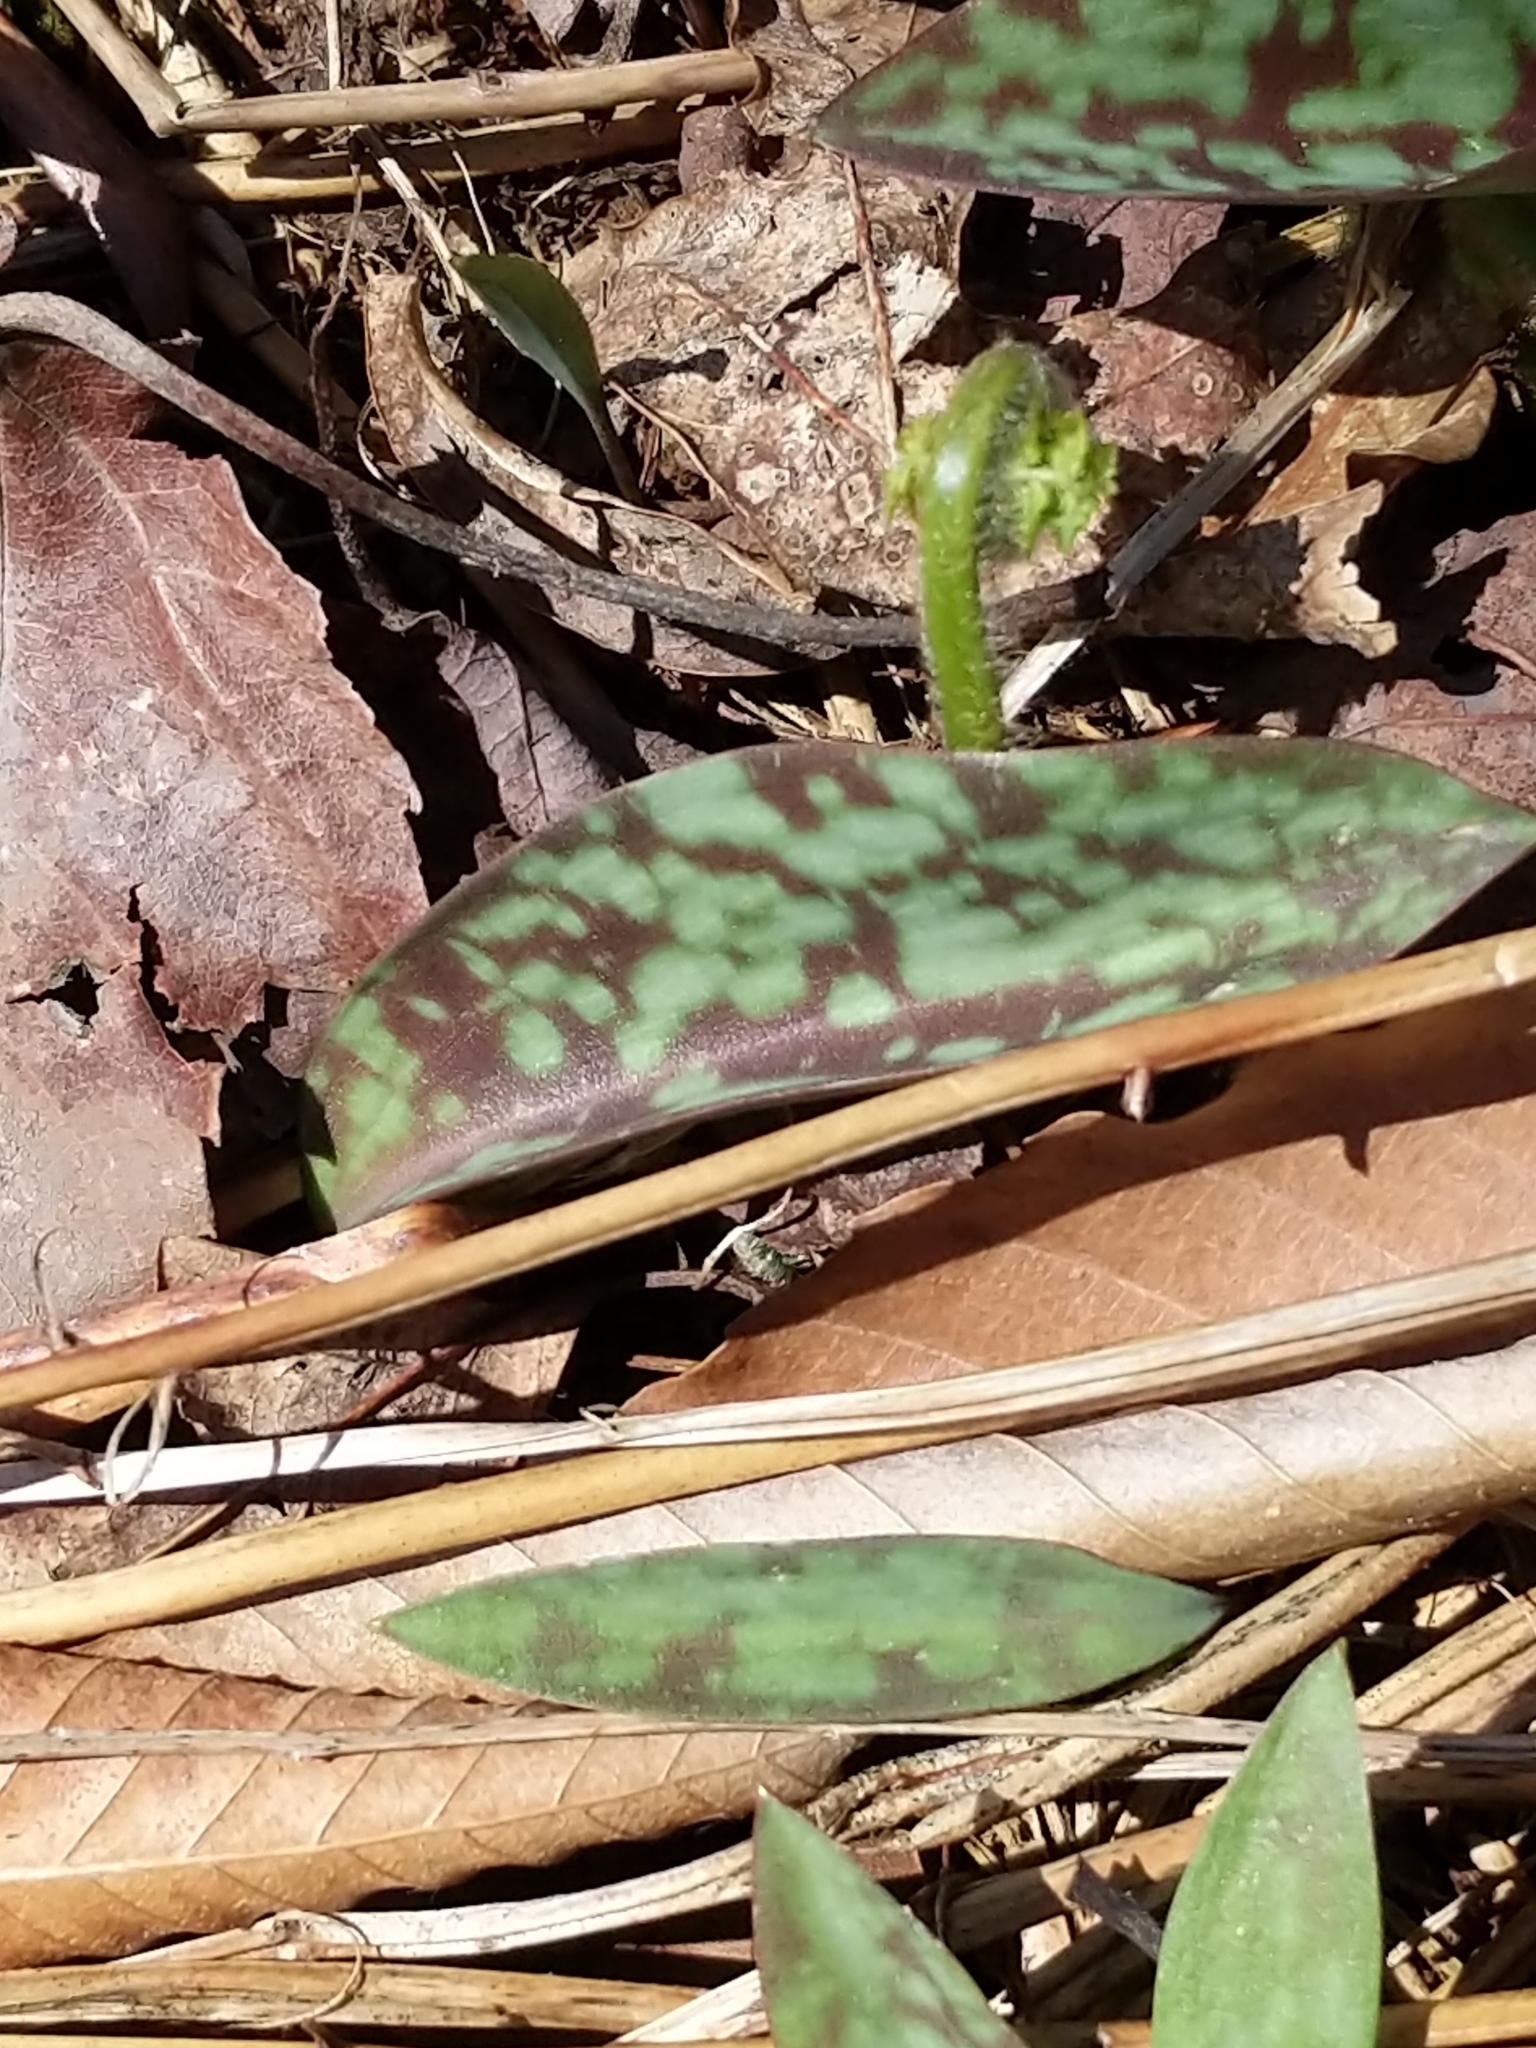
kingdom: Plantae
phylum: Tracheophyta
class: Liliopsida
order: Liliales
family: Liliaceae
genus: Erythronium
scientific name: Erythronium
